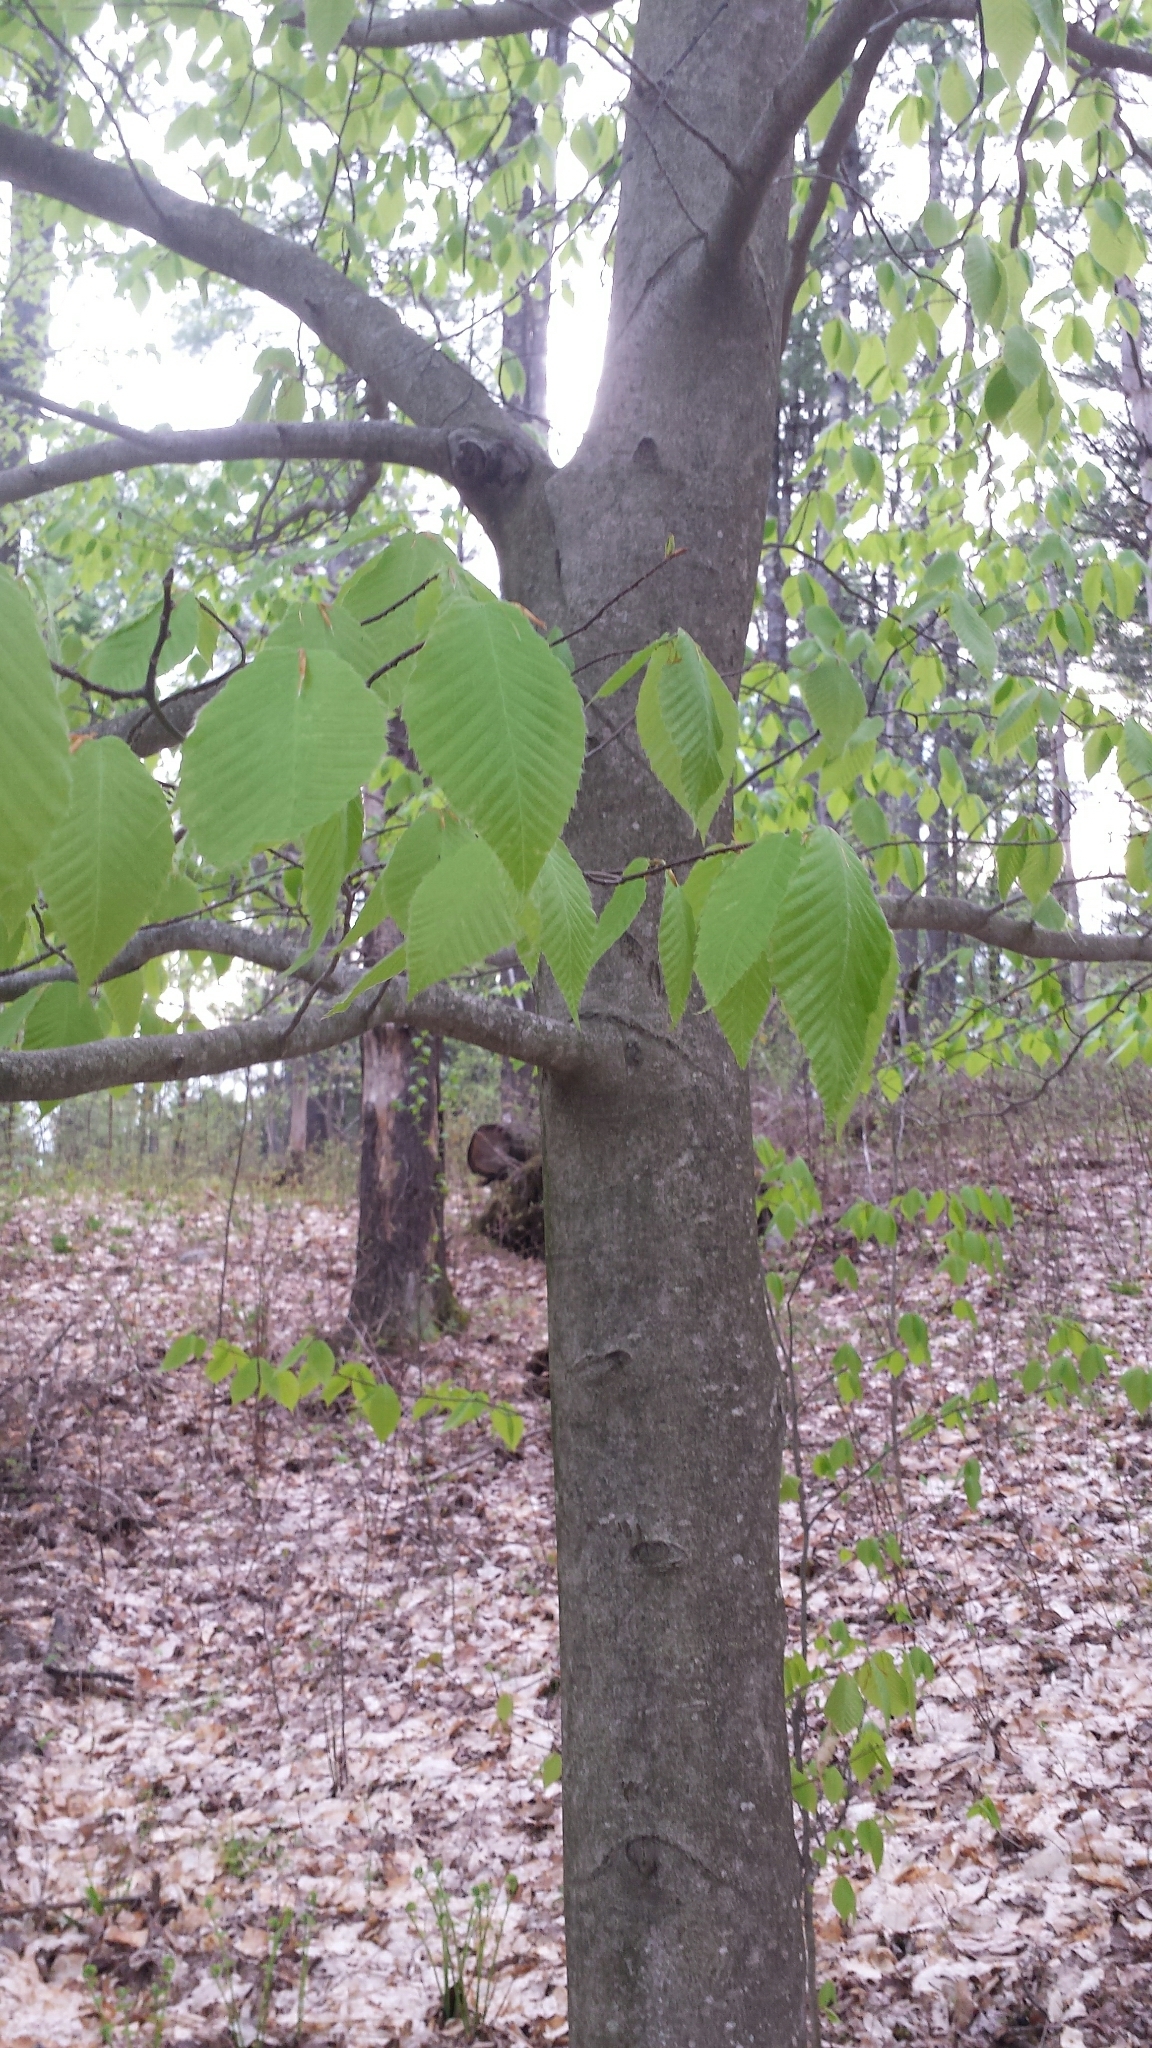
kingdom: Plantae
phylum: Tracheophyta
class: Magnoliopsida
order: Fagales
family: Fagaceae
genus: Fagus
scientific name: Fagus grandifolia
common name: American beech
